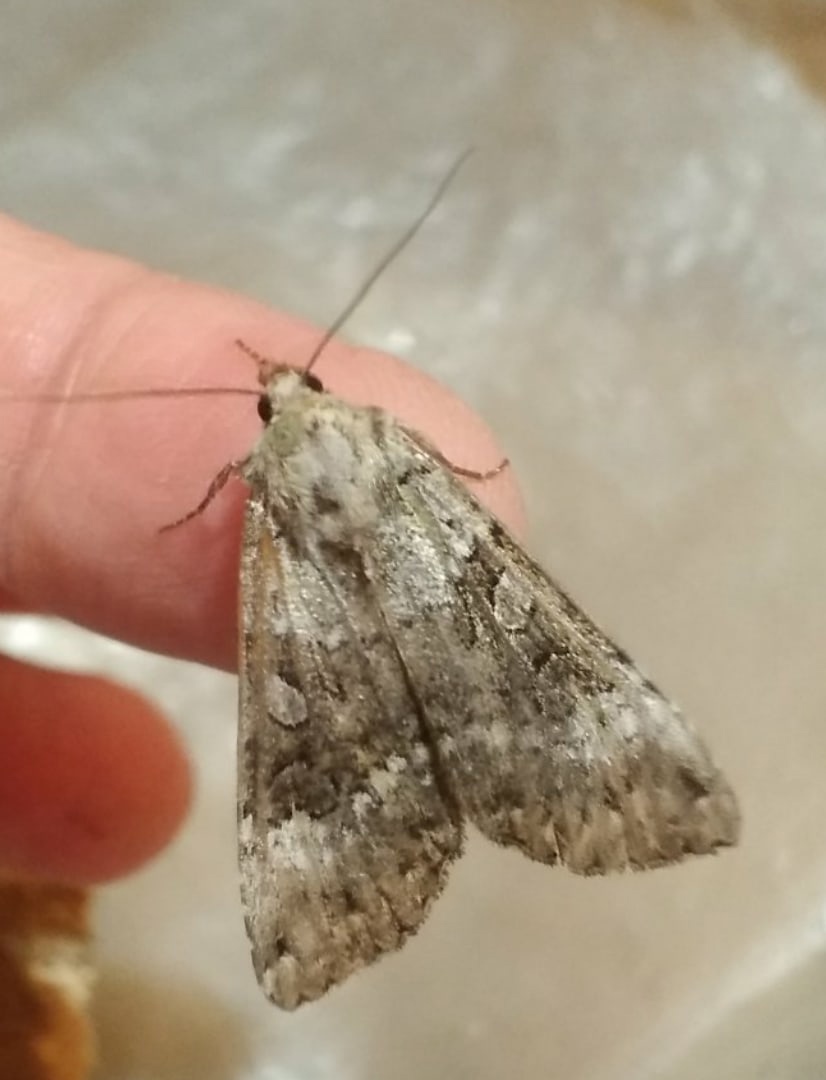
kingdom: Animalia
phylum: Arthropoda
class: Insecta
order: Lepidoptera
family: Noctuidae
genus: Anaplectoides
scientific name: Anaplectoides prasina
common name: Green arches
